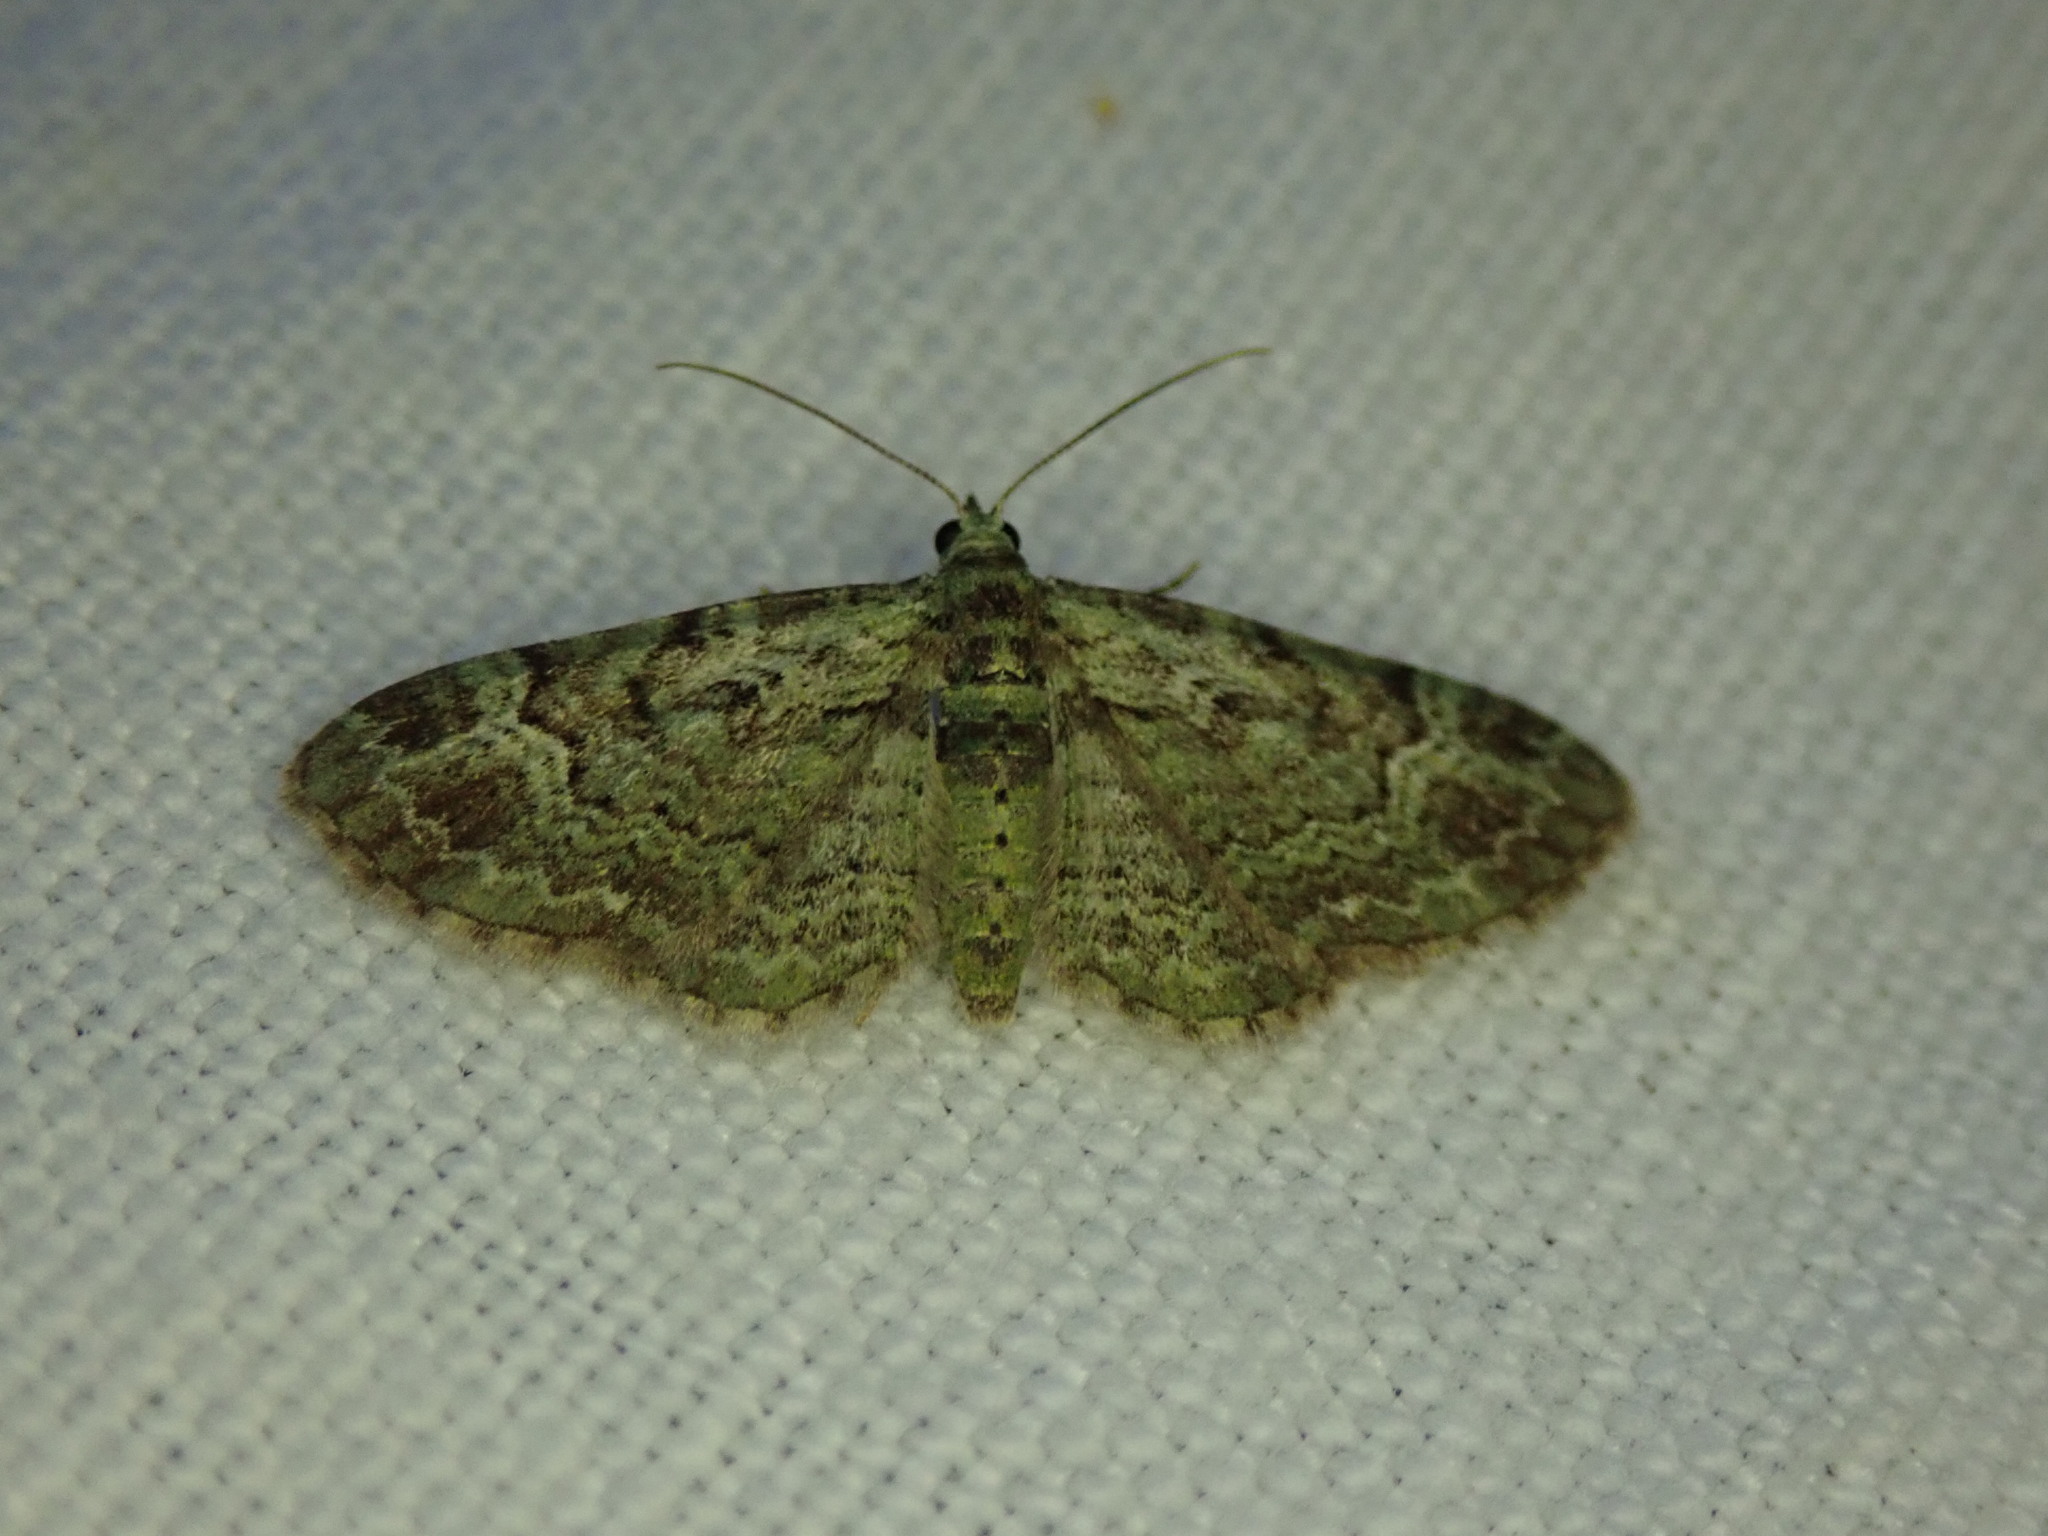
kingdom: Animalia
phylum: Arthropoda
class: Insecta
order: Lepidoptera
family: Geometridae
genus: Pasiphila
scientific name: Pasiphila rectangulata
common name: Green pug
